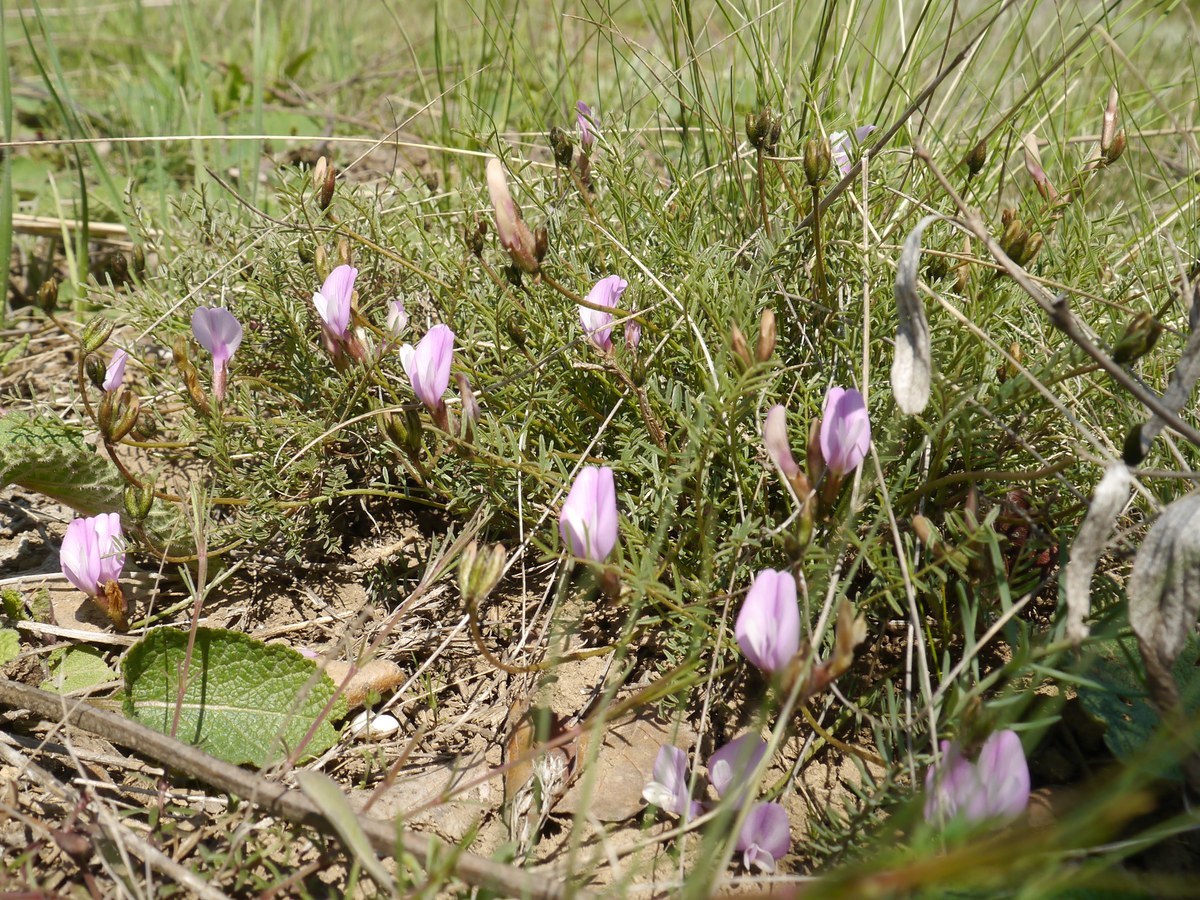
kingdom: Plantae
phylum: Tracheophyta
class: Magnoliopsida
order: Fabales
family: Fabaceae
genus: Astragalus
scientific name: Astragalus corniculatus
